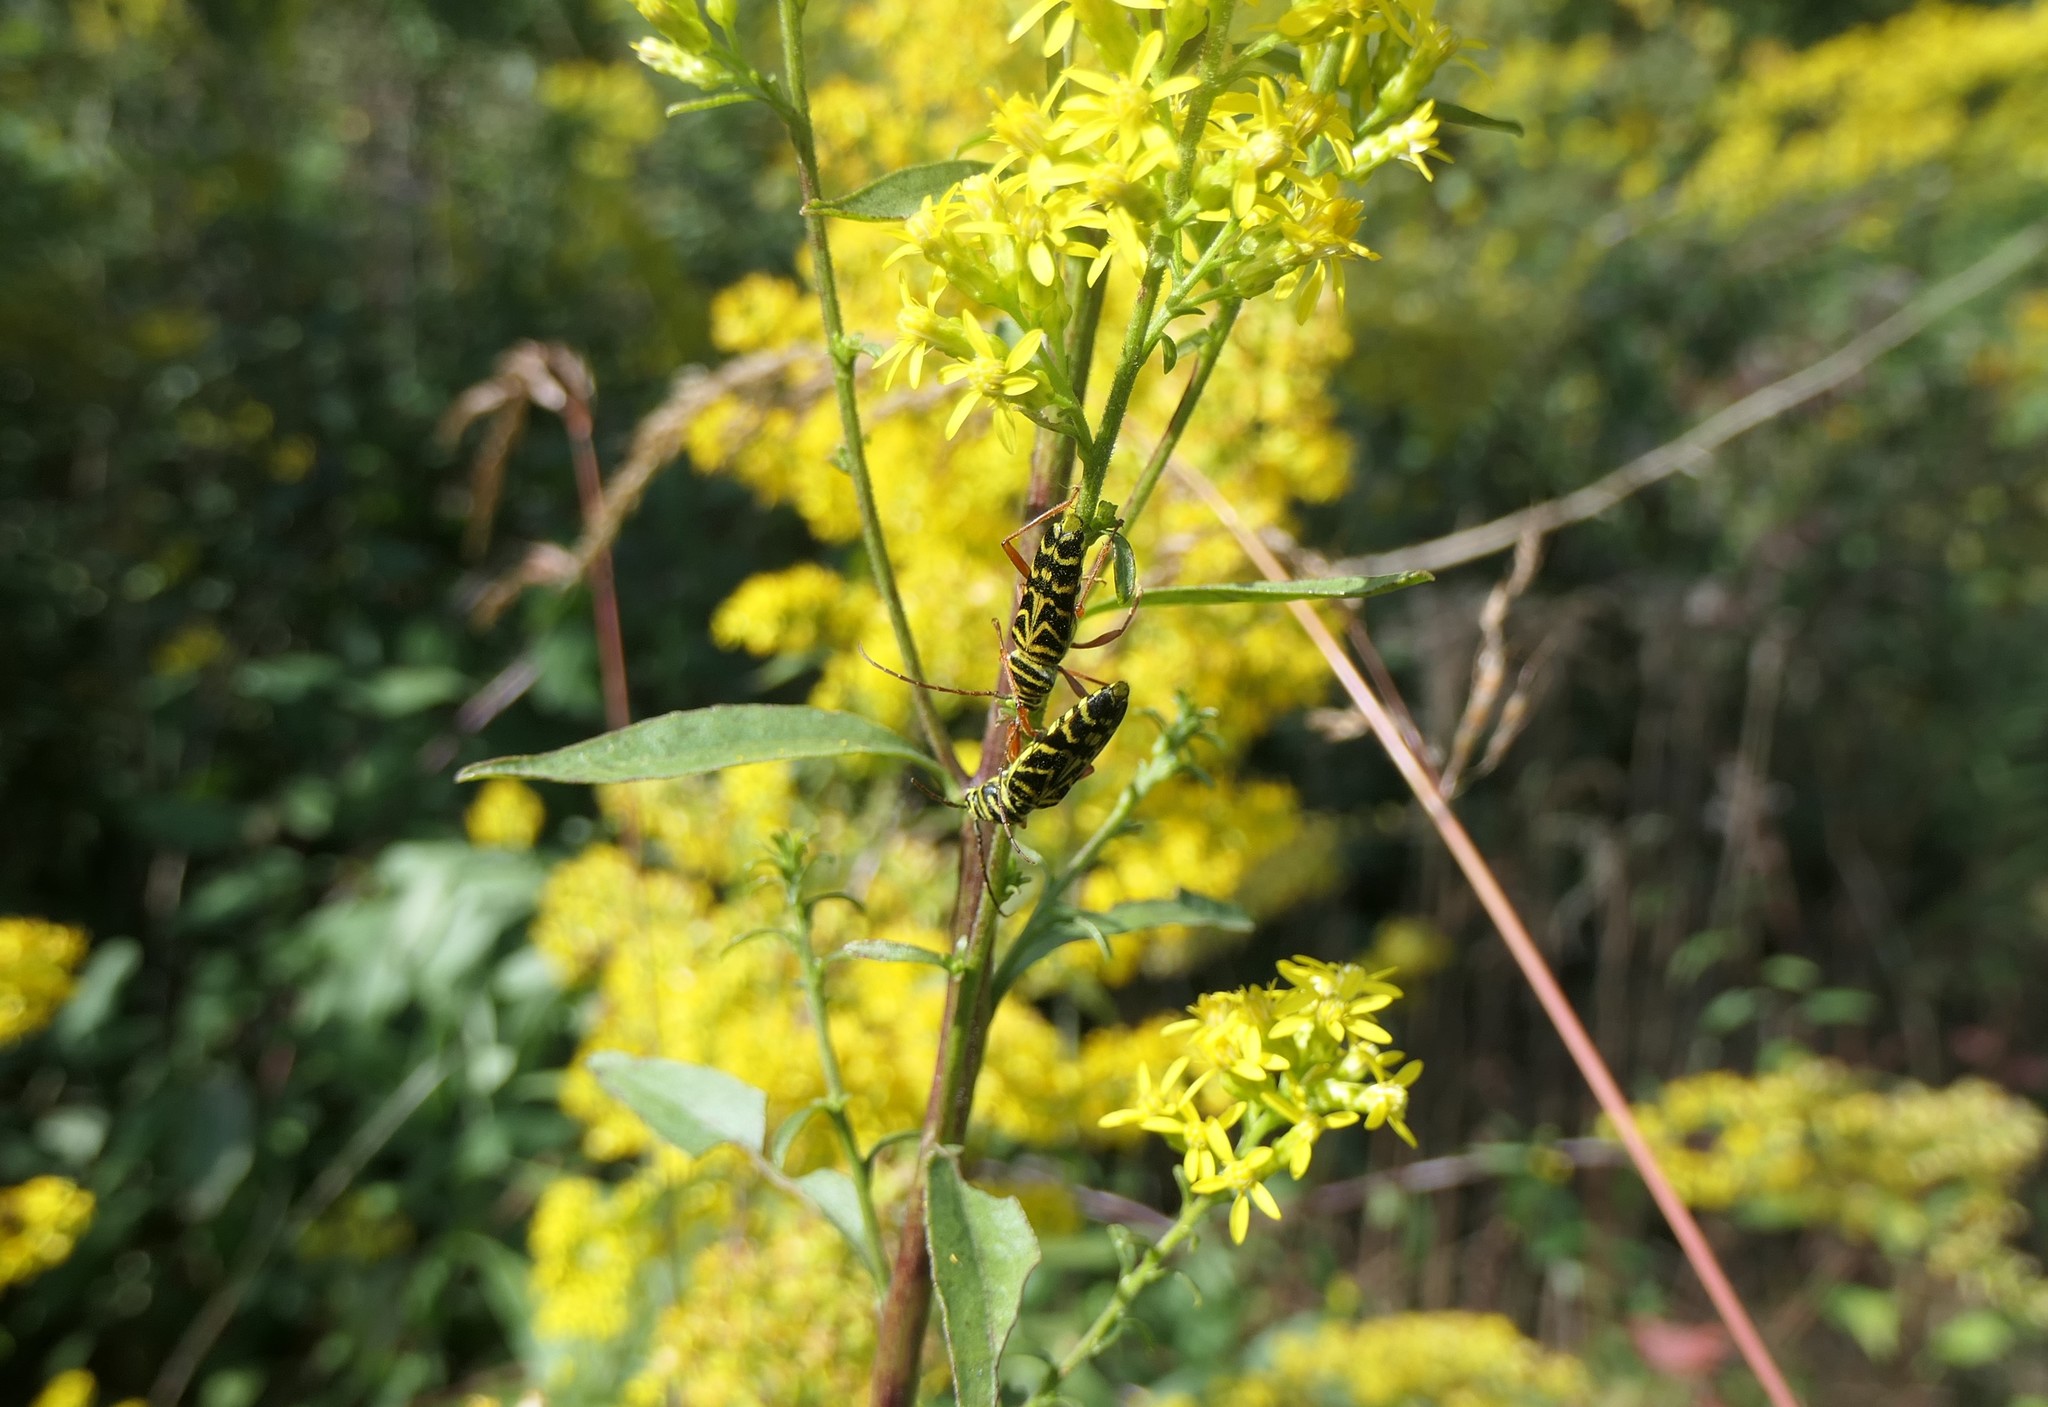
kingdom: Animalia
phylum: Arthropoda
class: Insecta
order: Coleoptera
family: Cerambycidae
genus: Megacyllene
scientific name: Megacyllene robiniae
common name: Locust borer
